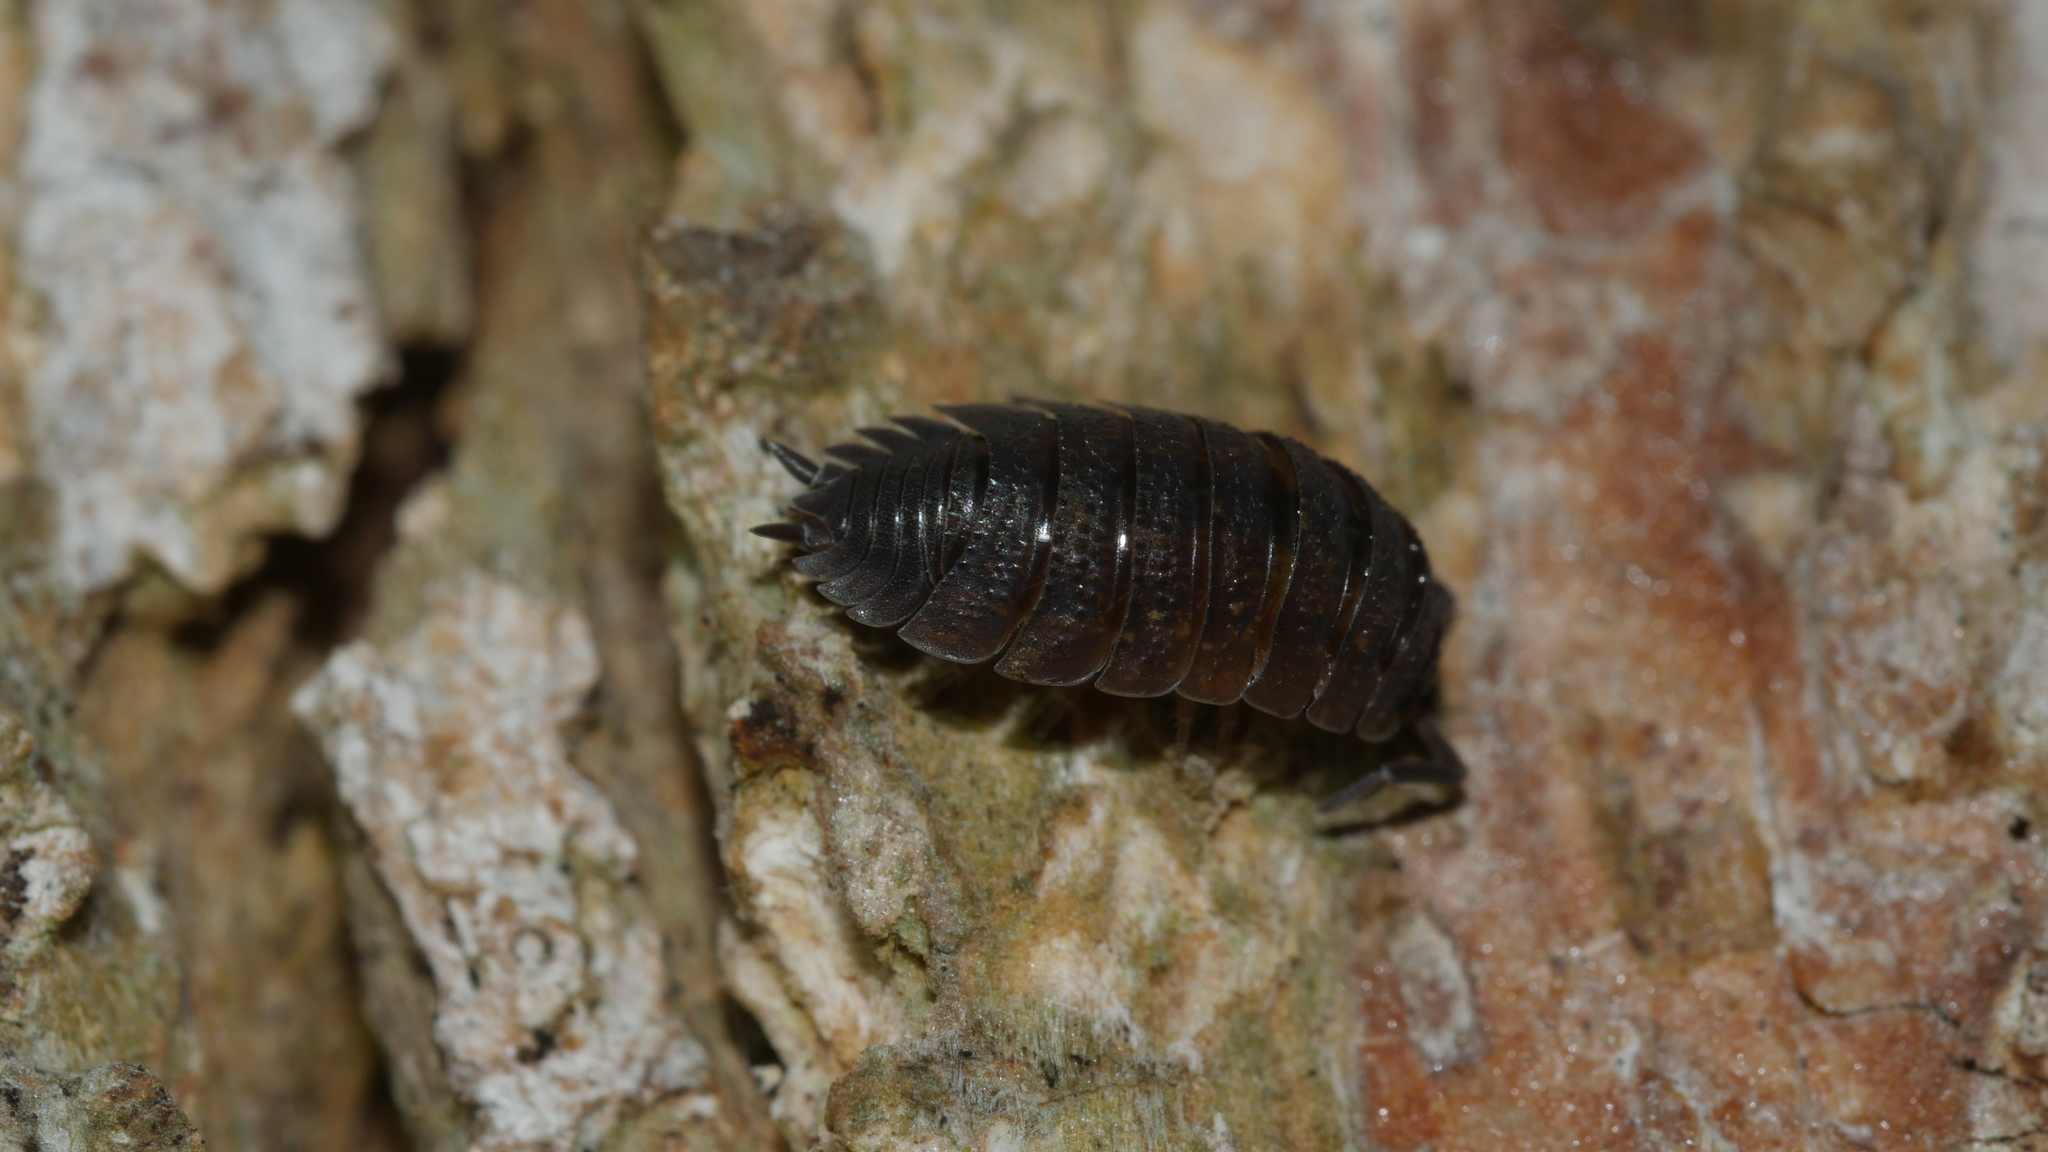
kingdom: Animalia
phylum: Arthropoda
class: Malacostraca
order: Isopoda
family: Porcellionidae
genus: Porcellio
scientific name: Porcellio scaber
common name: Common rough woodlouse
